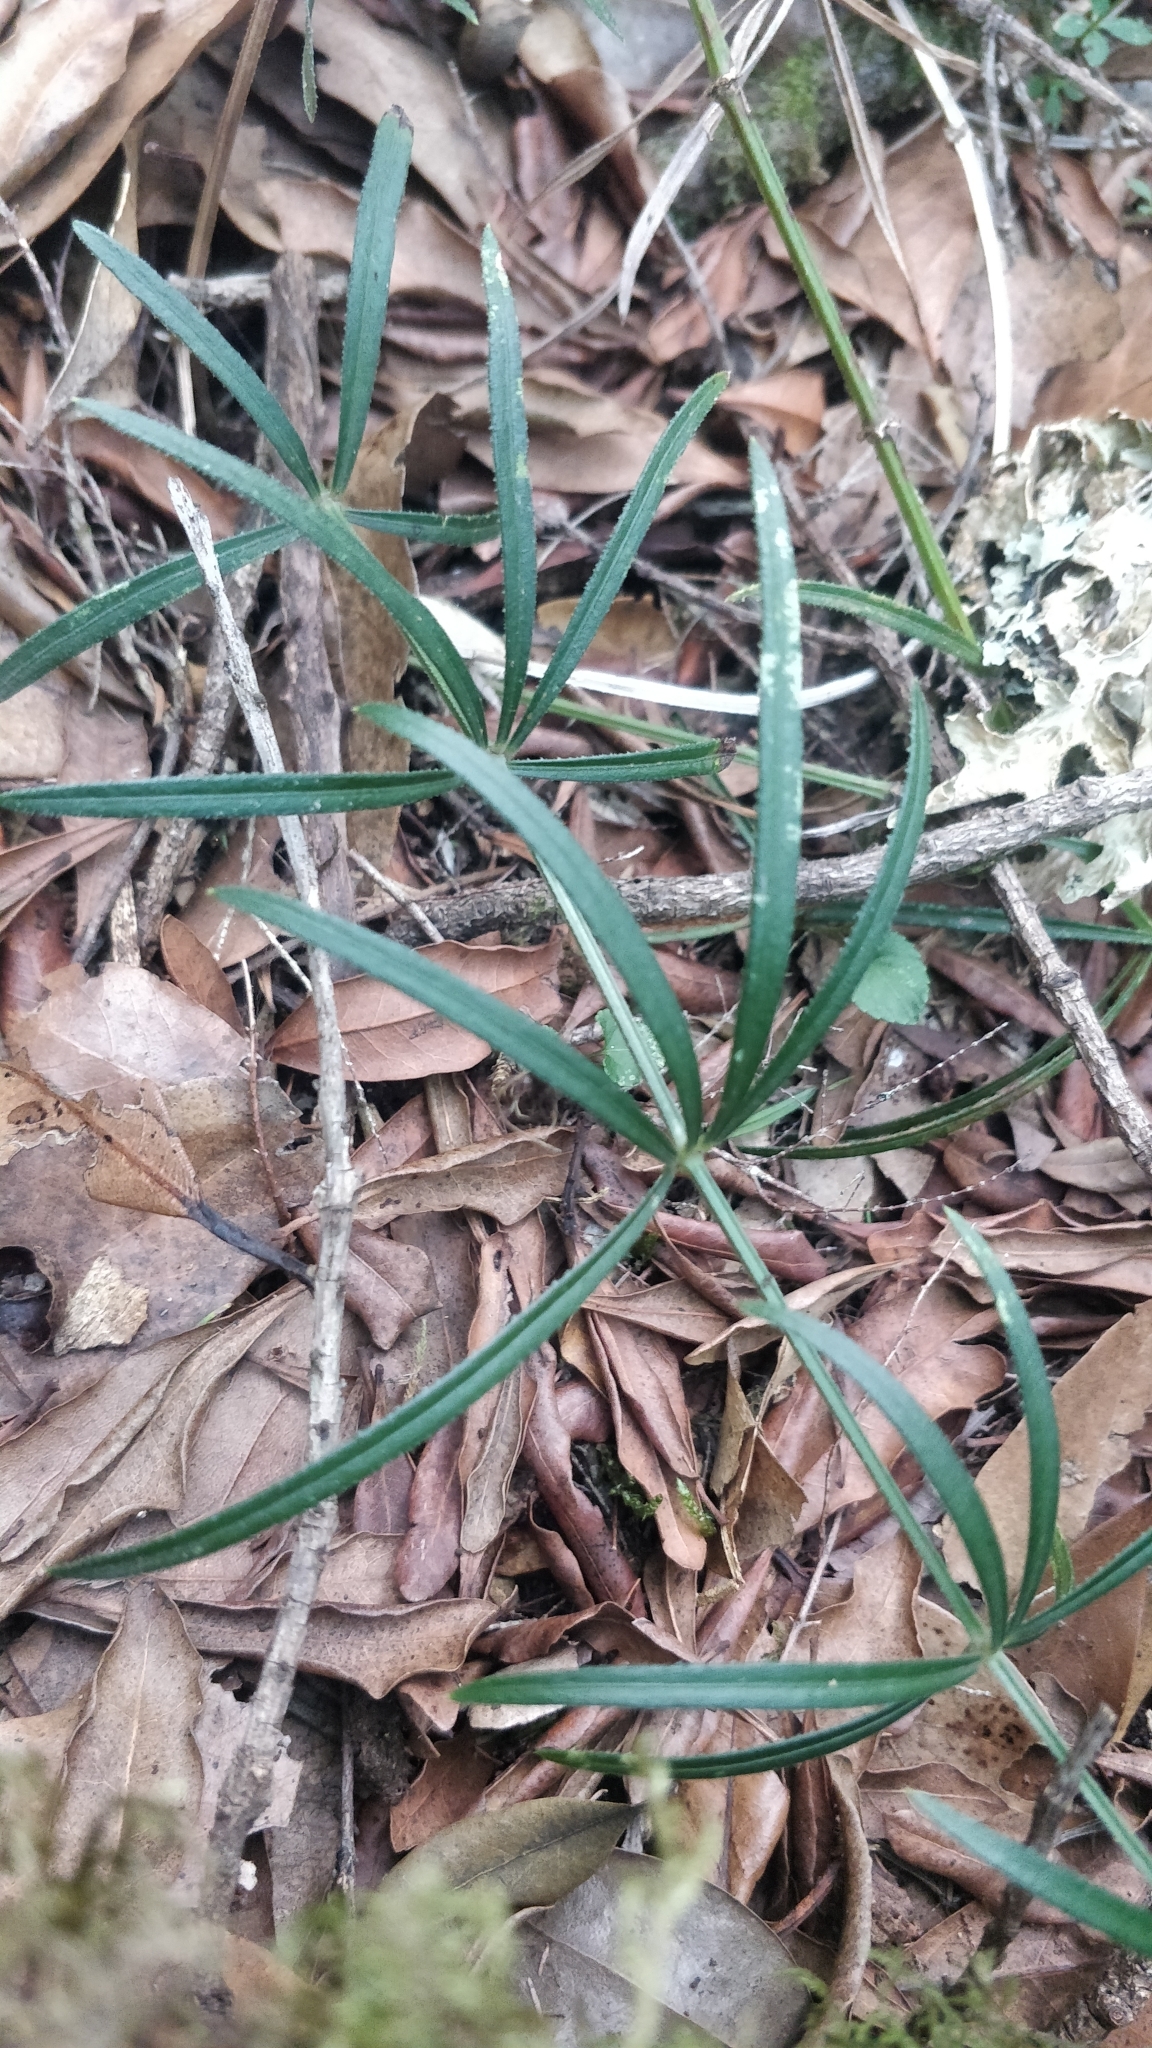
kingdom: Plantae
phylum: Tracheophyta
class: Magnoliopsida
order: Gentianales
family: Rubiaceae
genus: Rubia
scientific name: Rubia occidens
